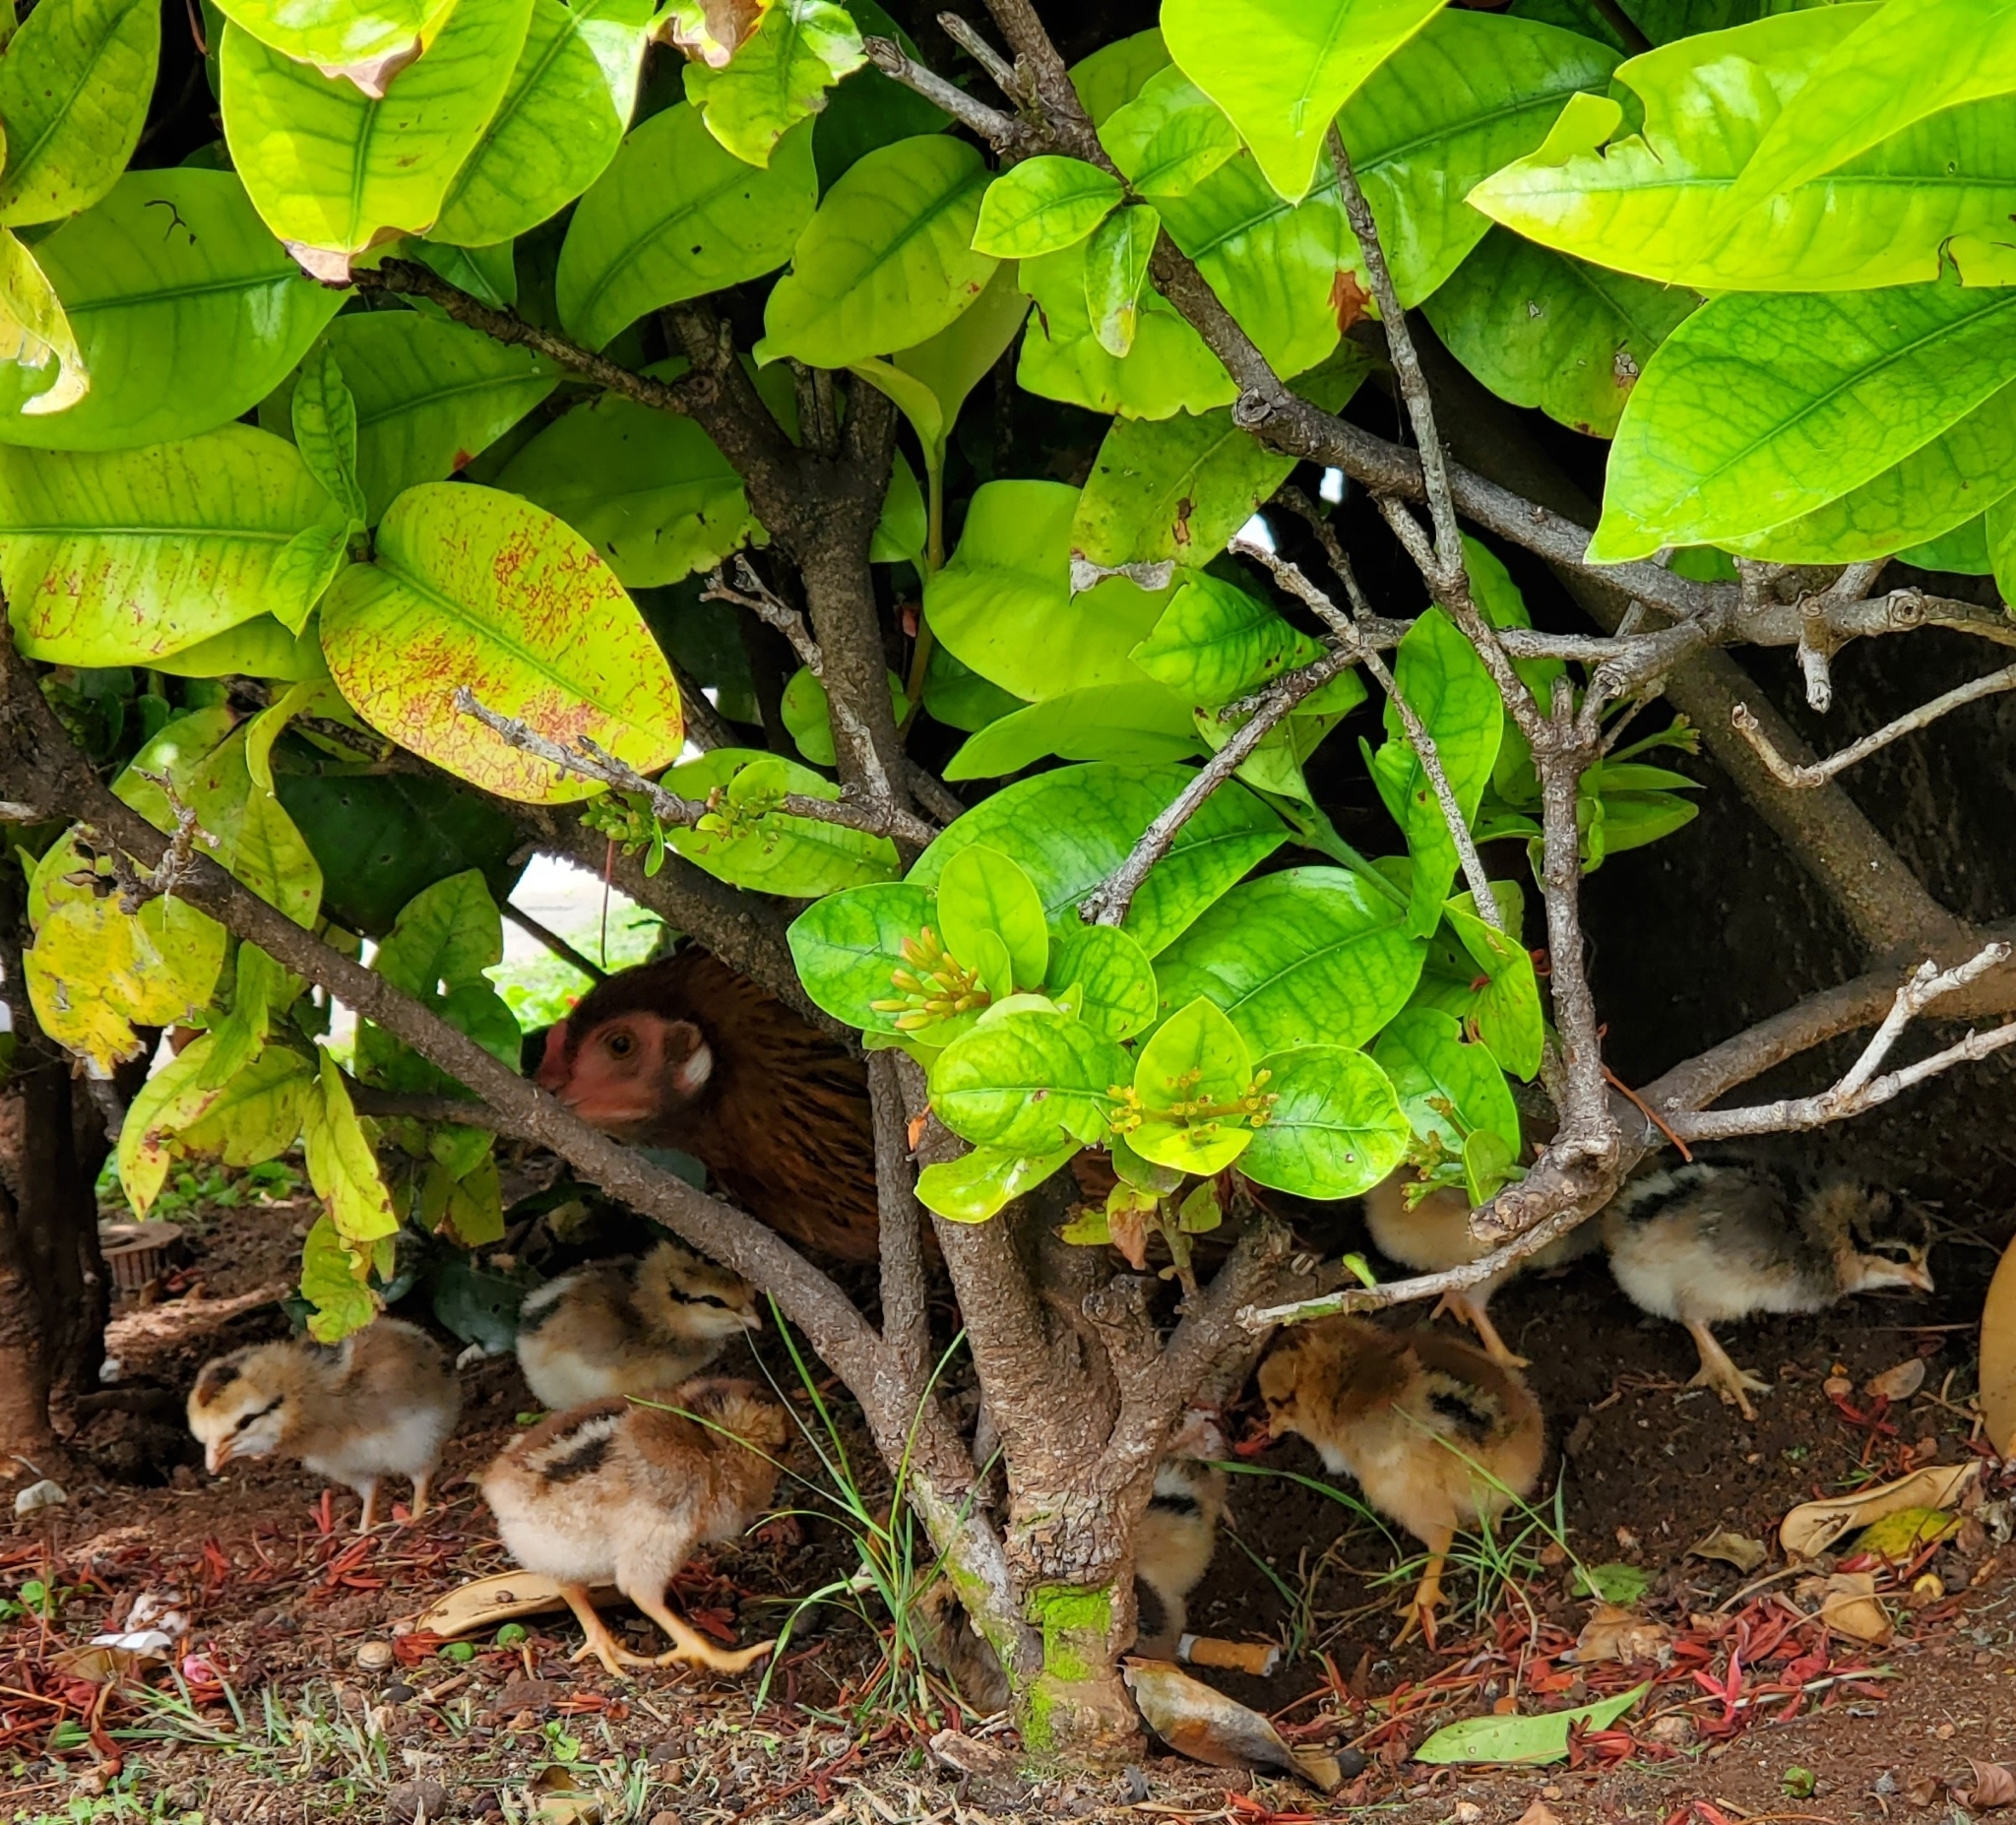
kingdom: Animalia
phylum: Chordata
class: Aves
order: Galliformes
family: Phasianidae
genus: Gallus
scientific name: Gallus gallus
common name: Red junglefowl
